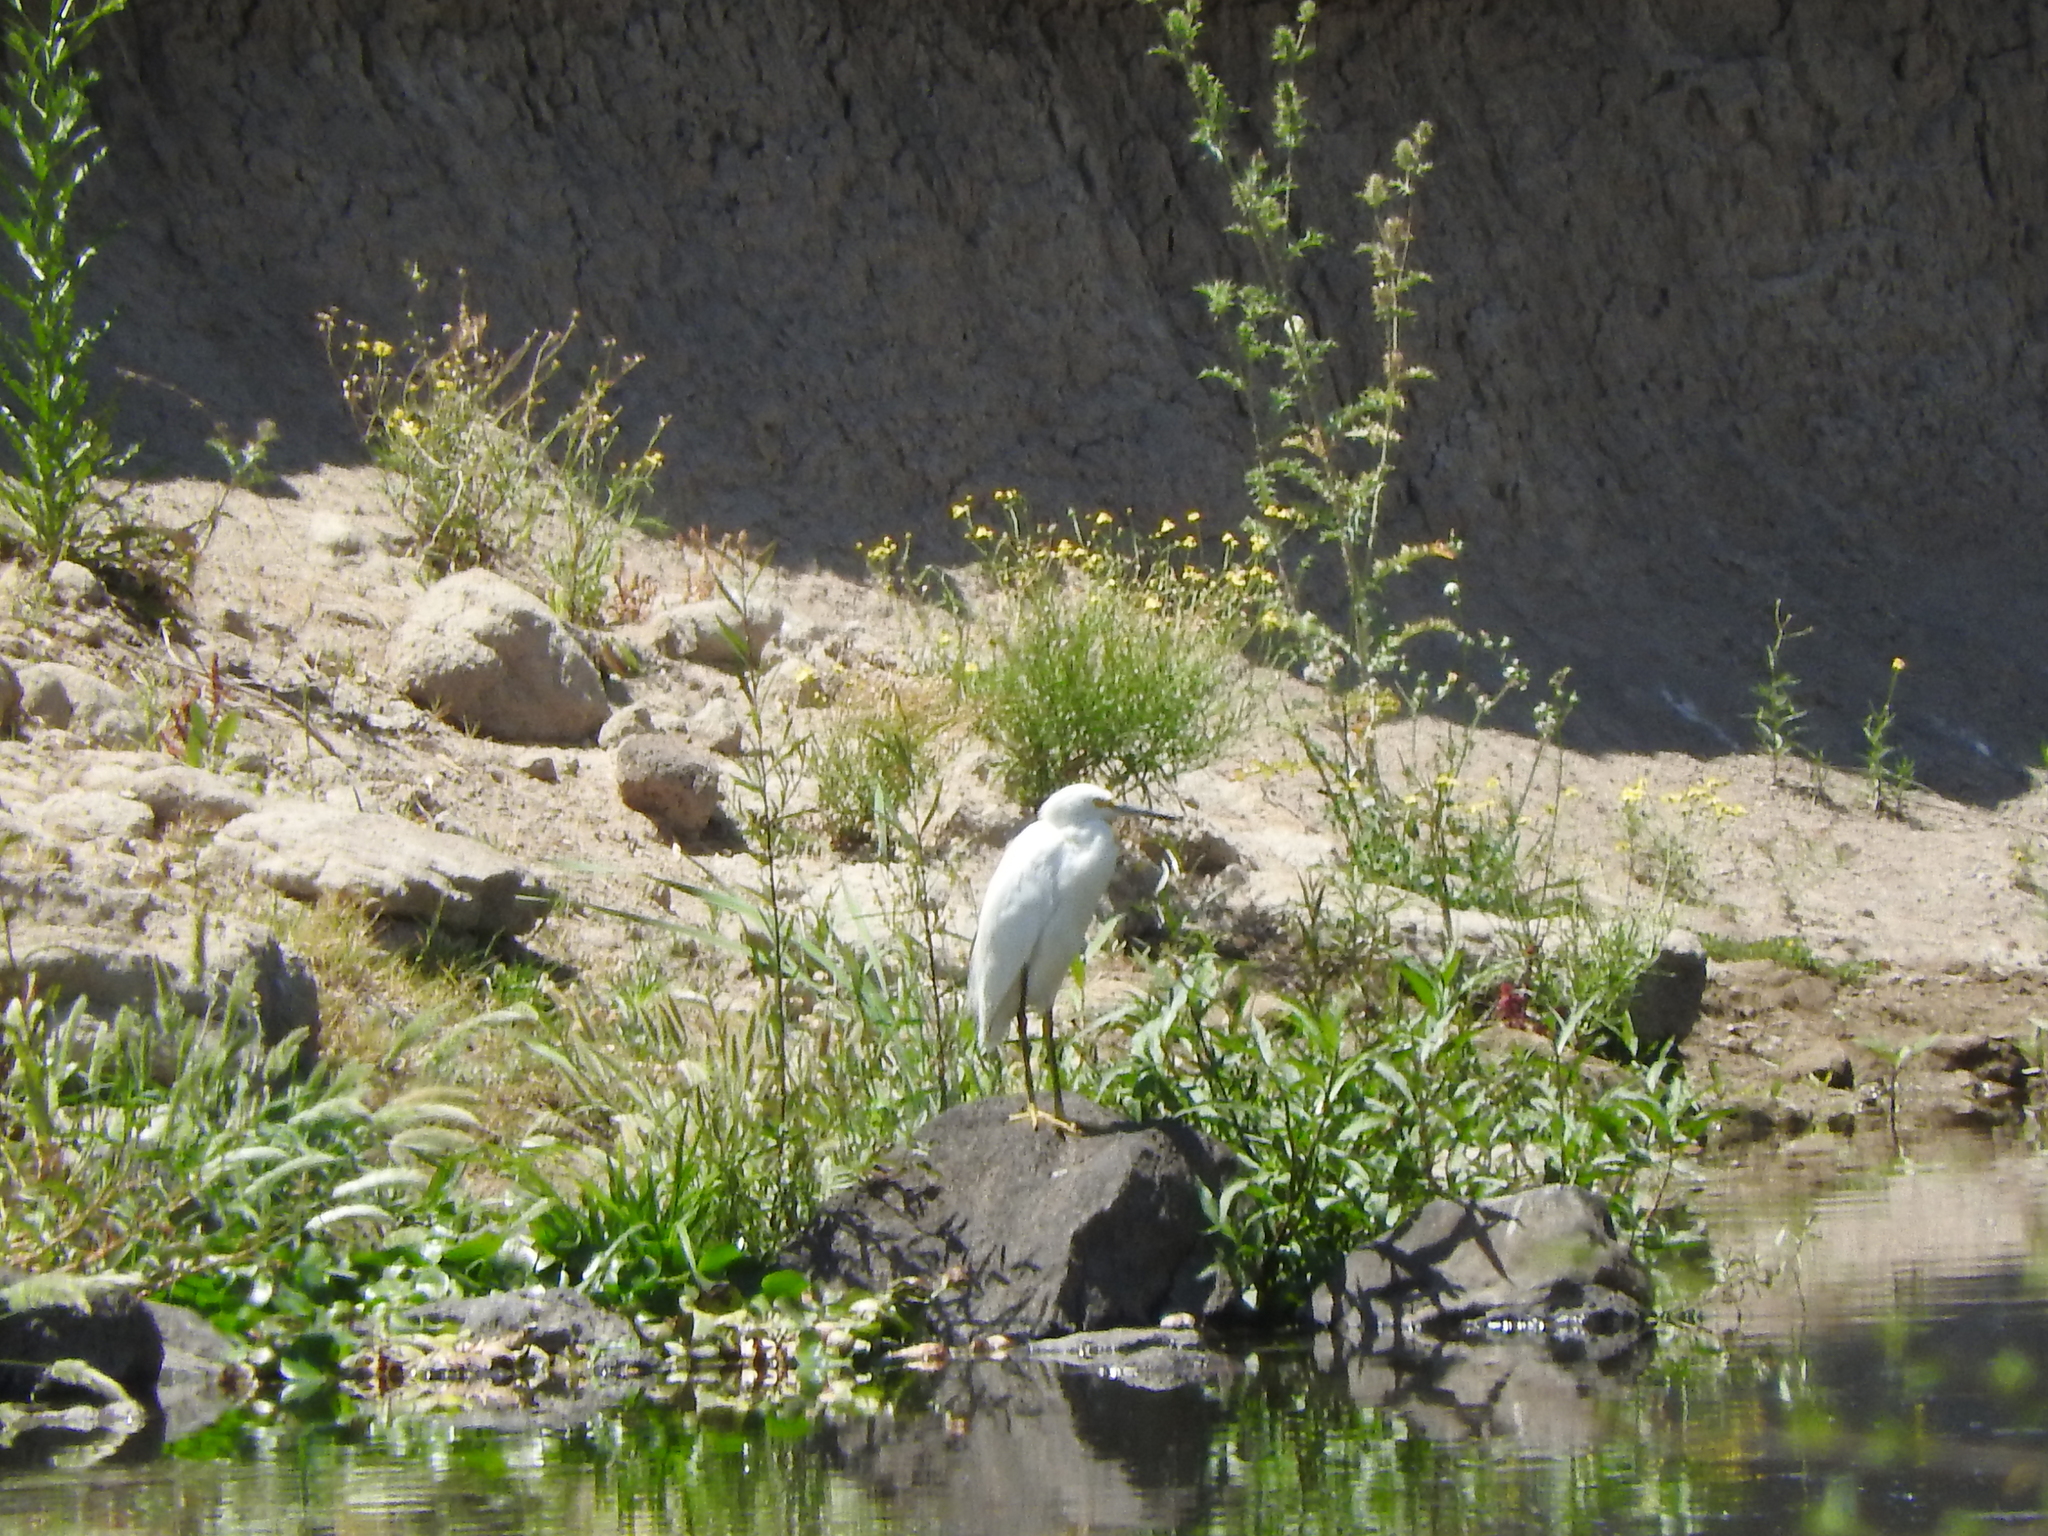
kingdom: Animalia
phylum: Chordata
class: Aves
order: Pelecaniformes
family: Ardeidae
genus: Egretta
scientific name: Egretta thula
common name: Snowy egret
